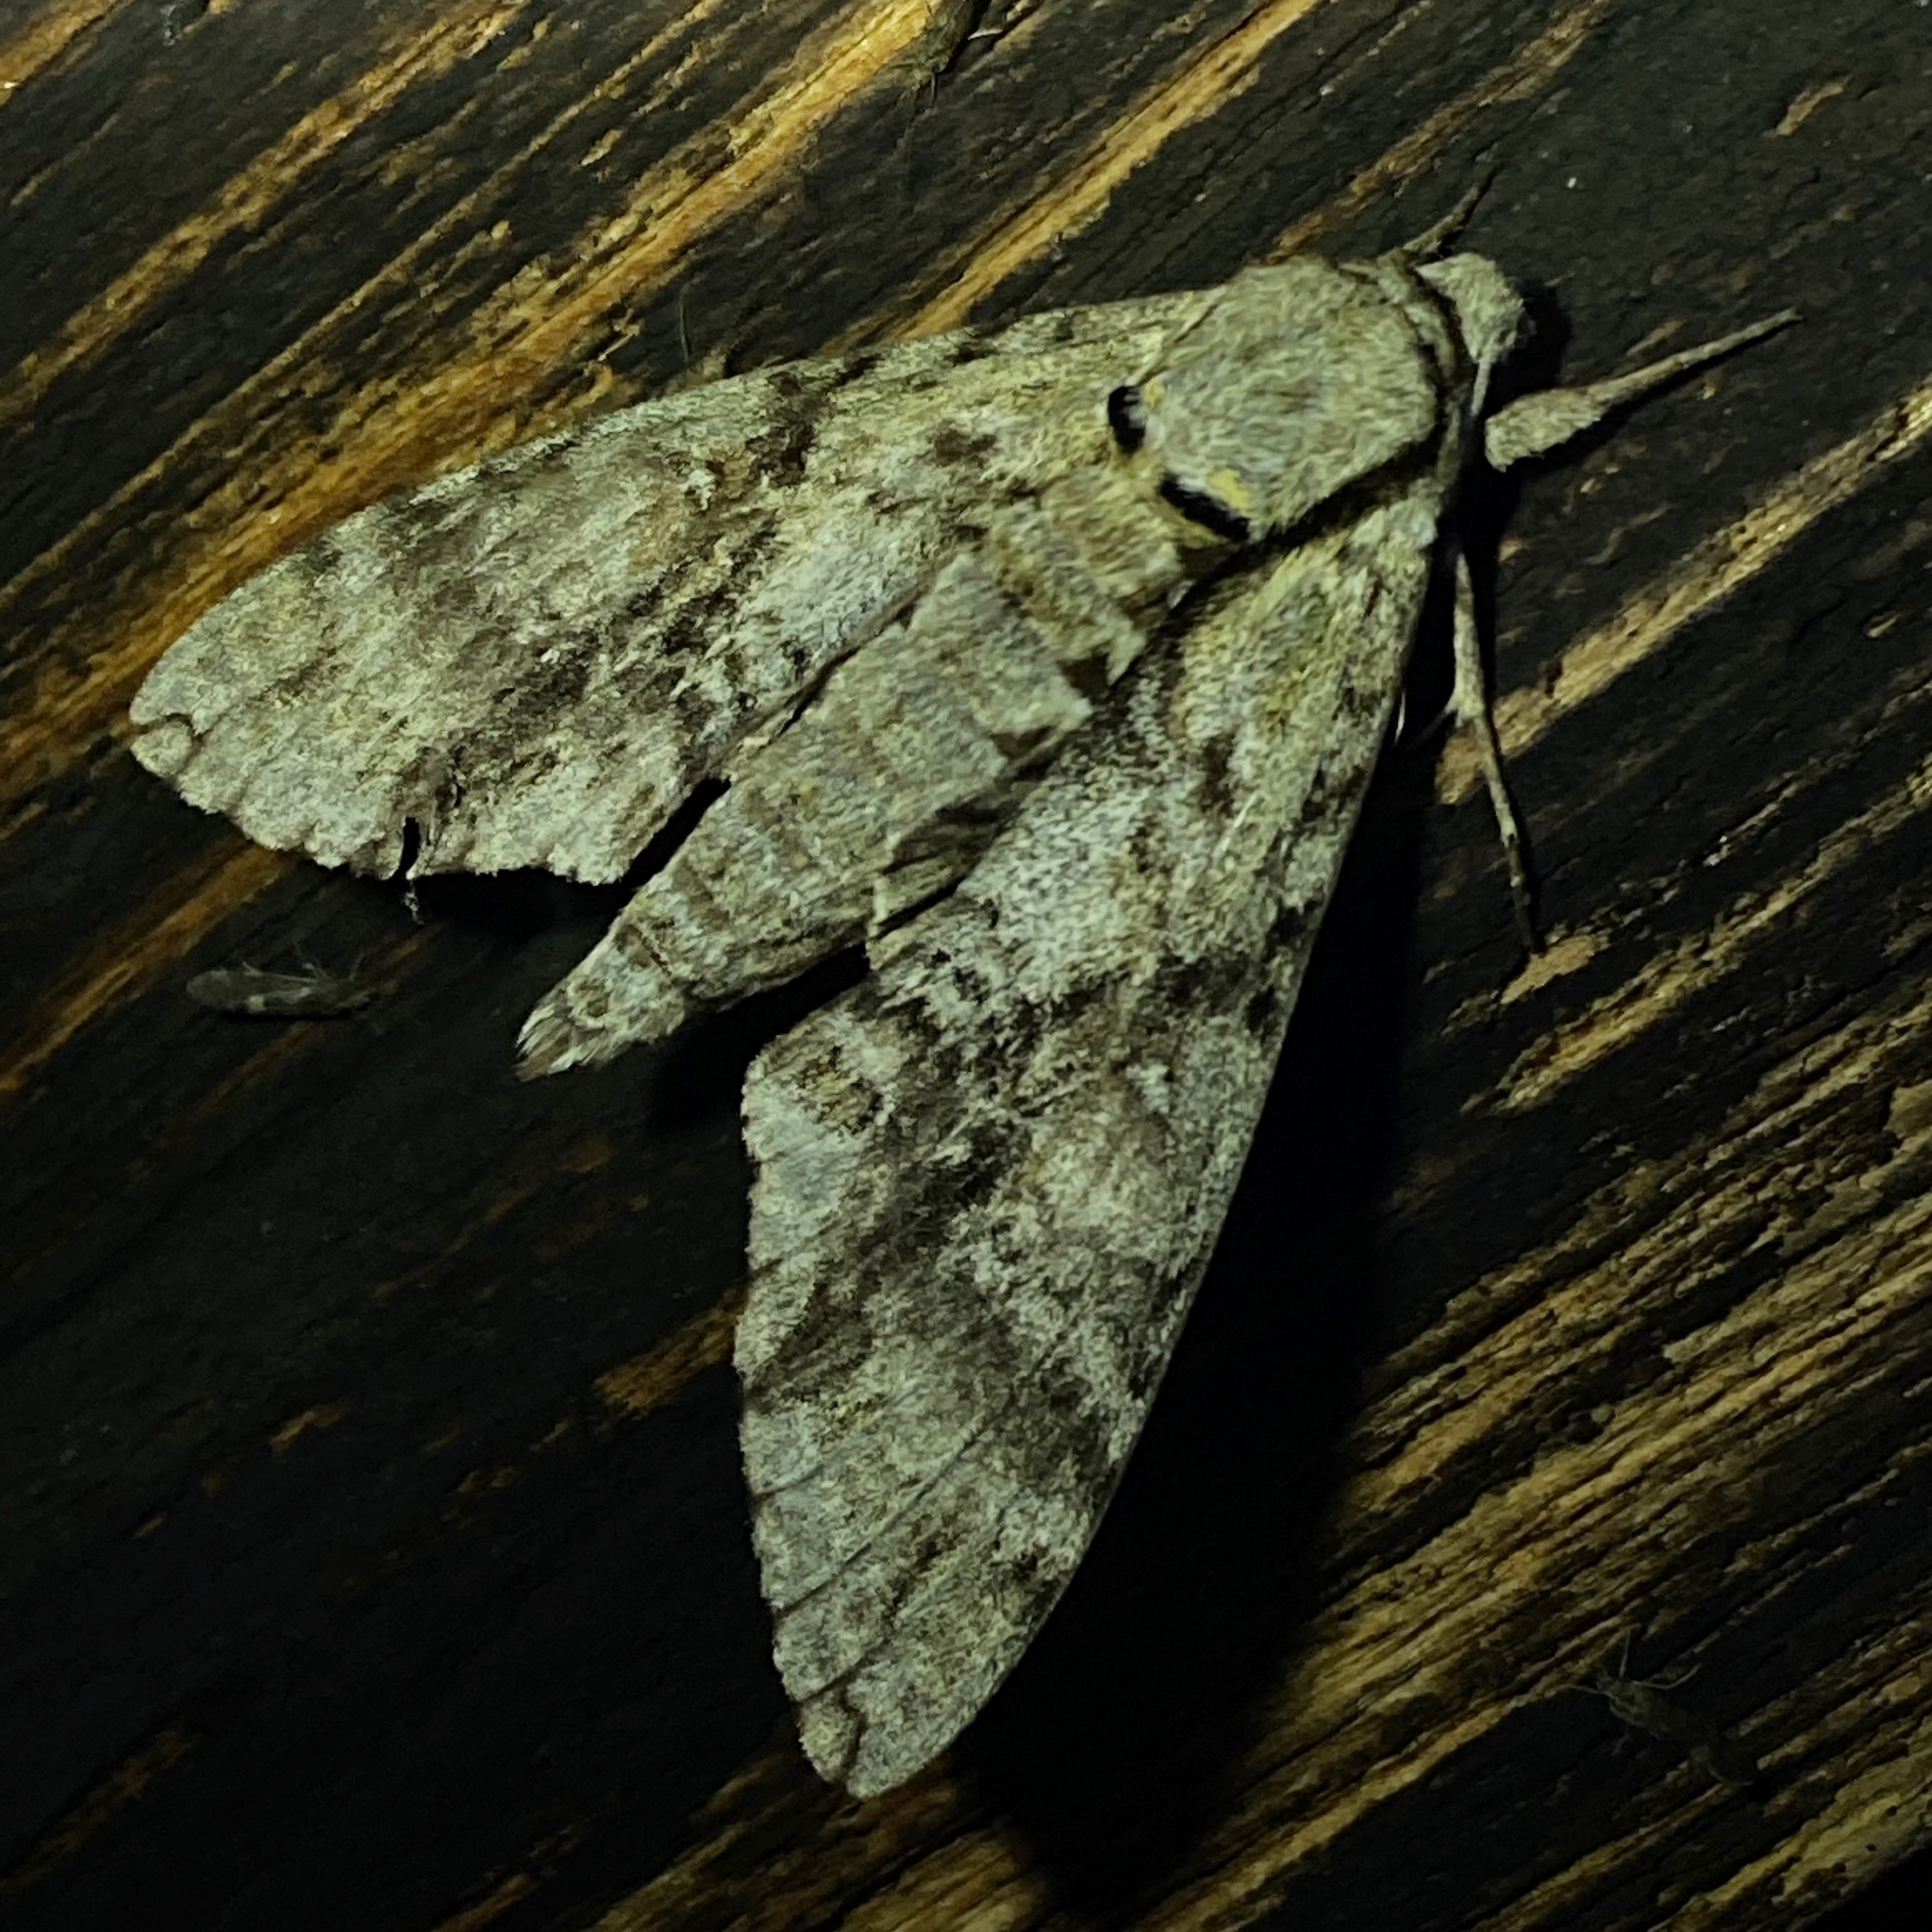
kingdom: Animalia
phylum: Arthropoda
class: Insecta
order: Lepidoptera
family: Sphingidae
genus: Manduca
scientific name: Manduca jasminearum
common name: Ash sphinx
